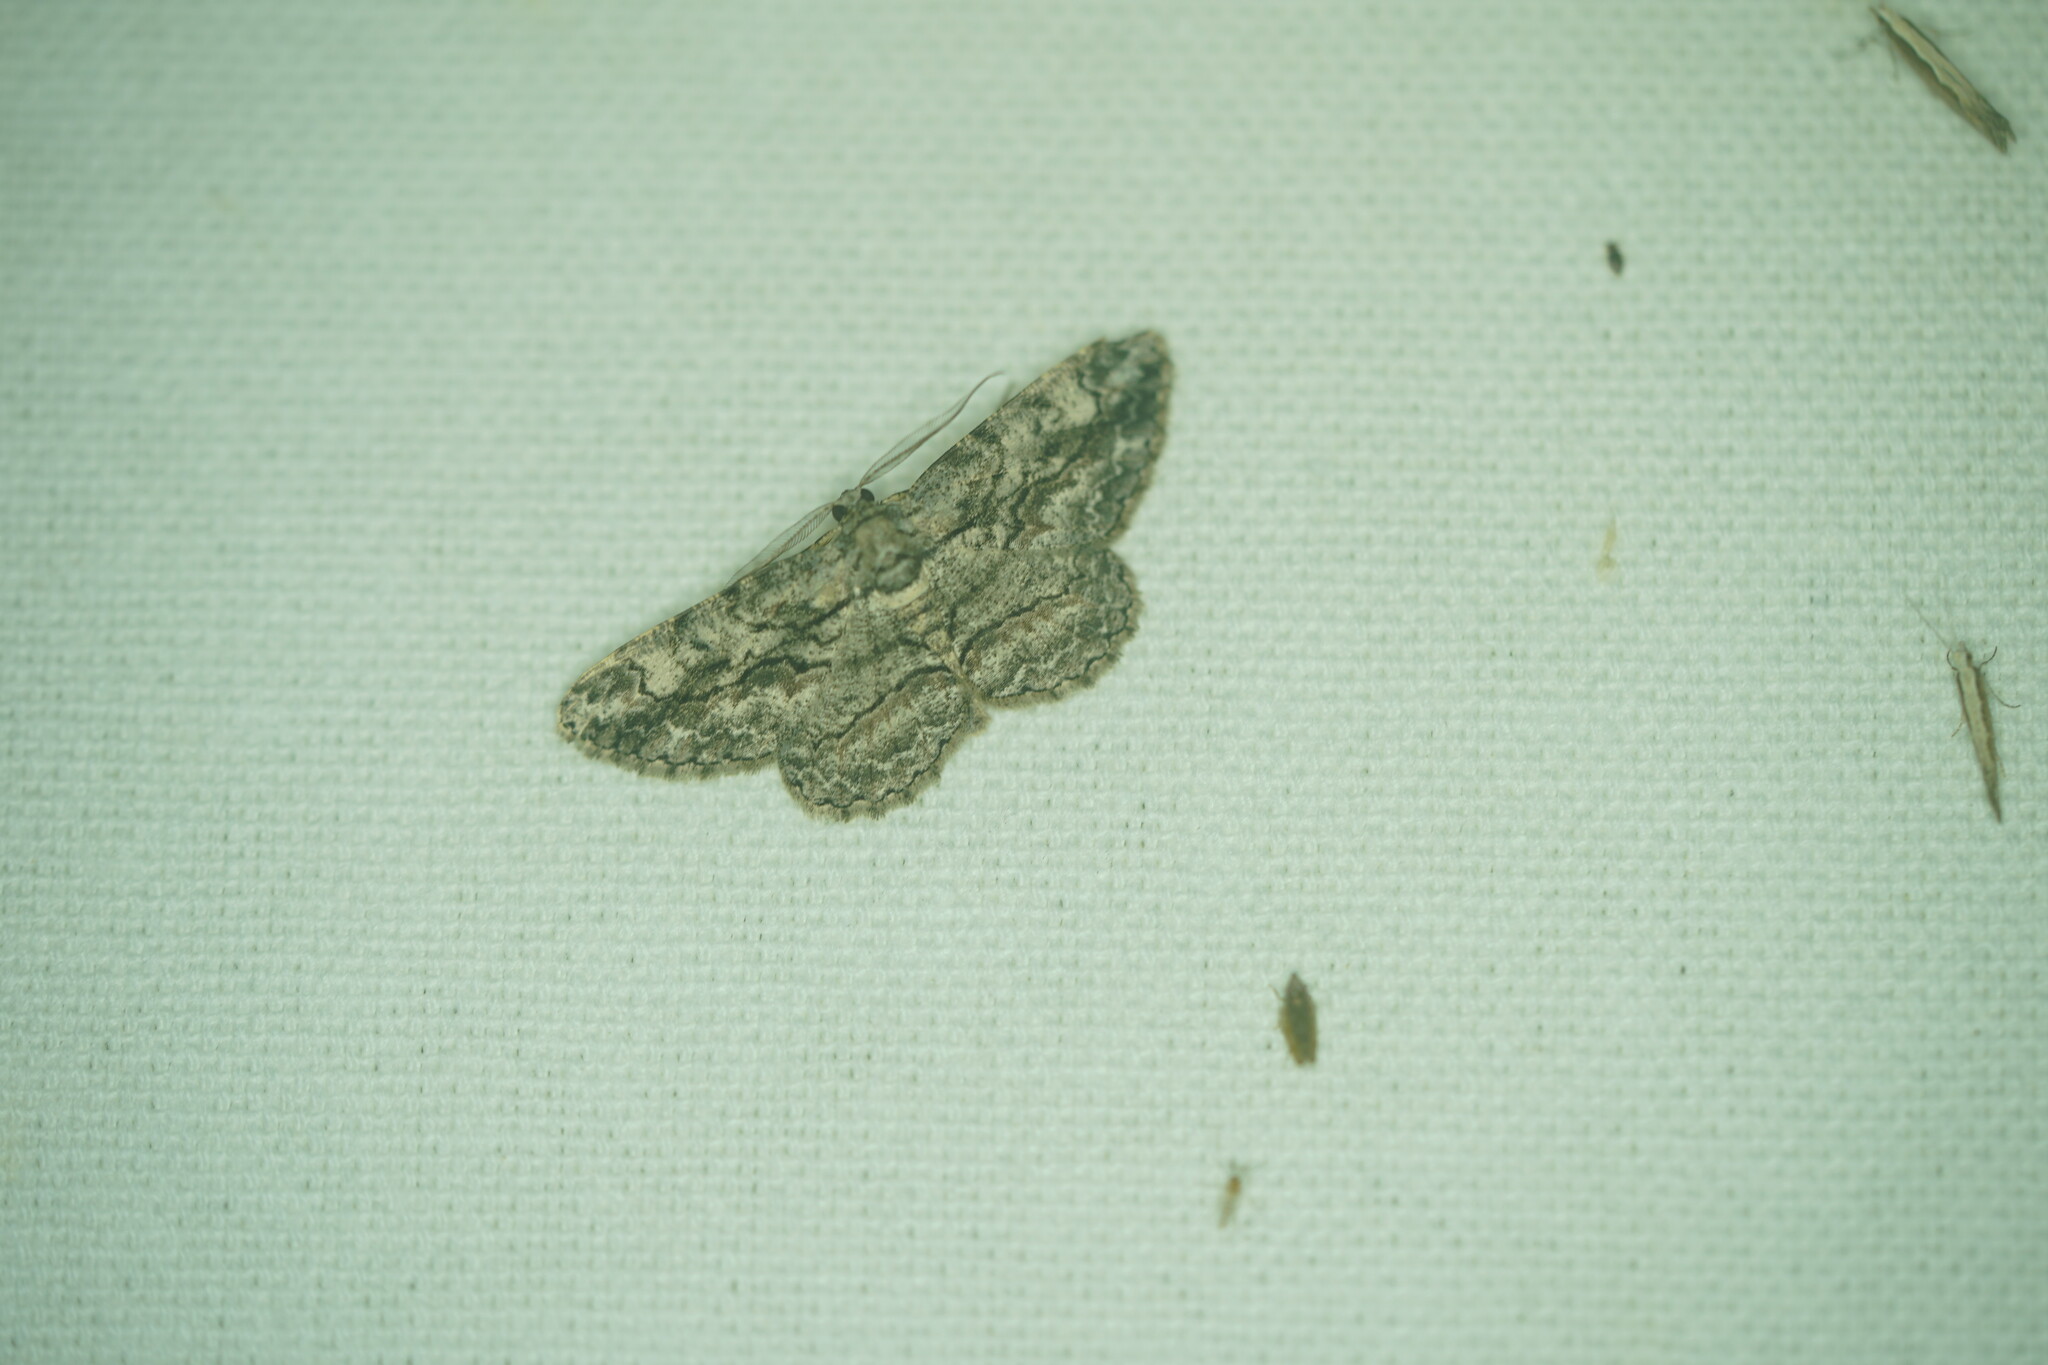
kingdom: Animalia
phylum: Arthropoda
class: Insecta
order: Lepidoptera
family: Geometridae
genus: Anavitrinella
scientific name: Anavitrinella pampinaria
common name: Common gray
